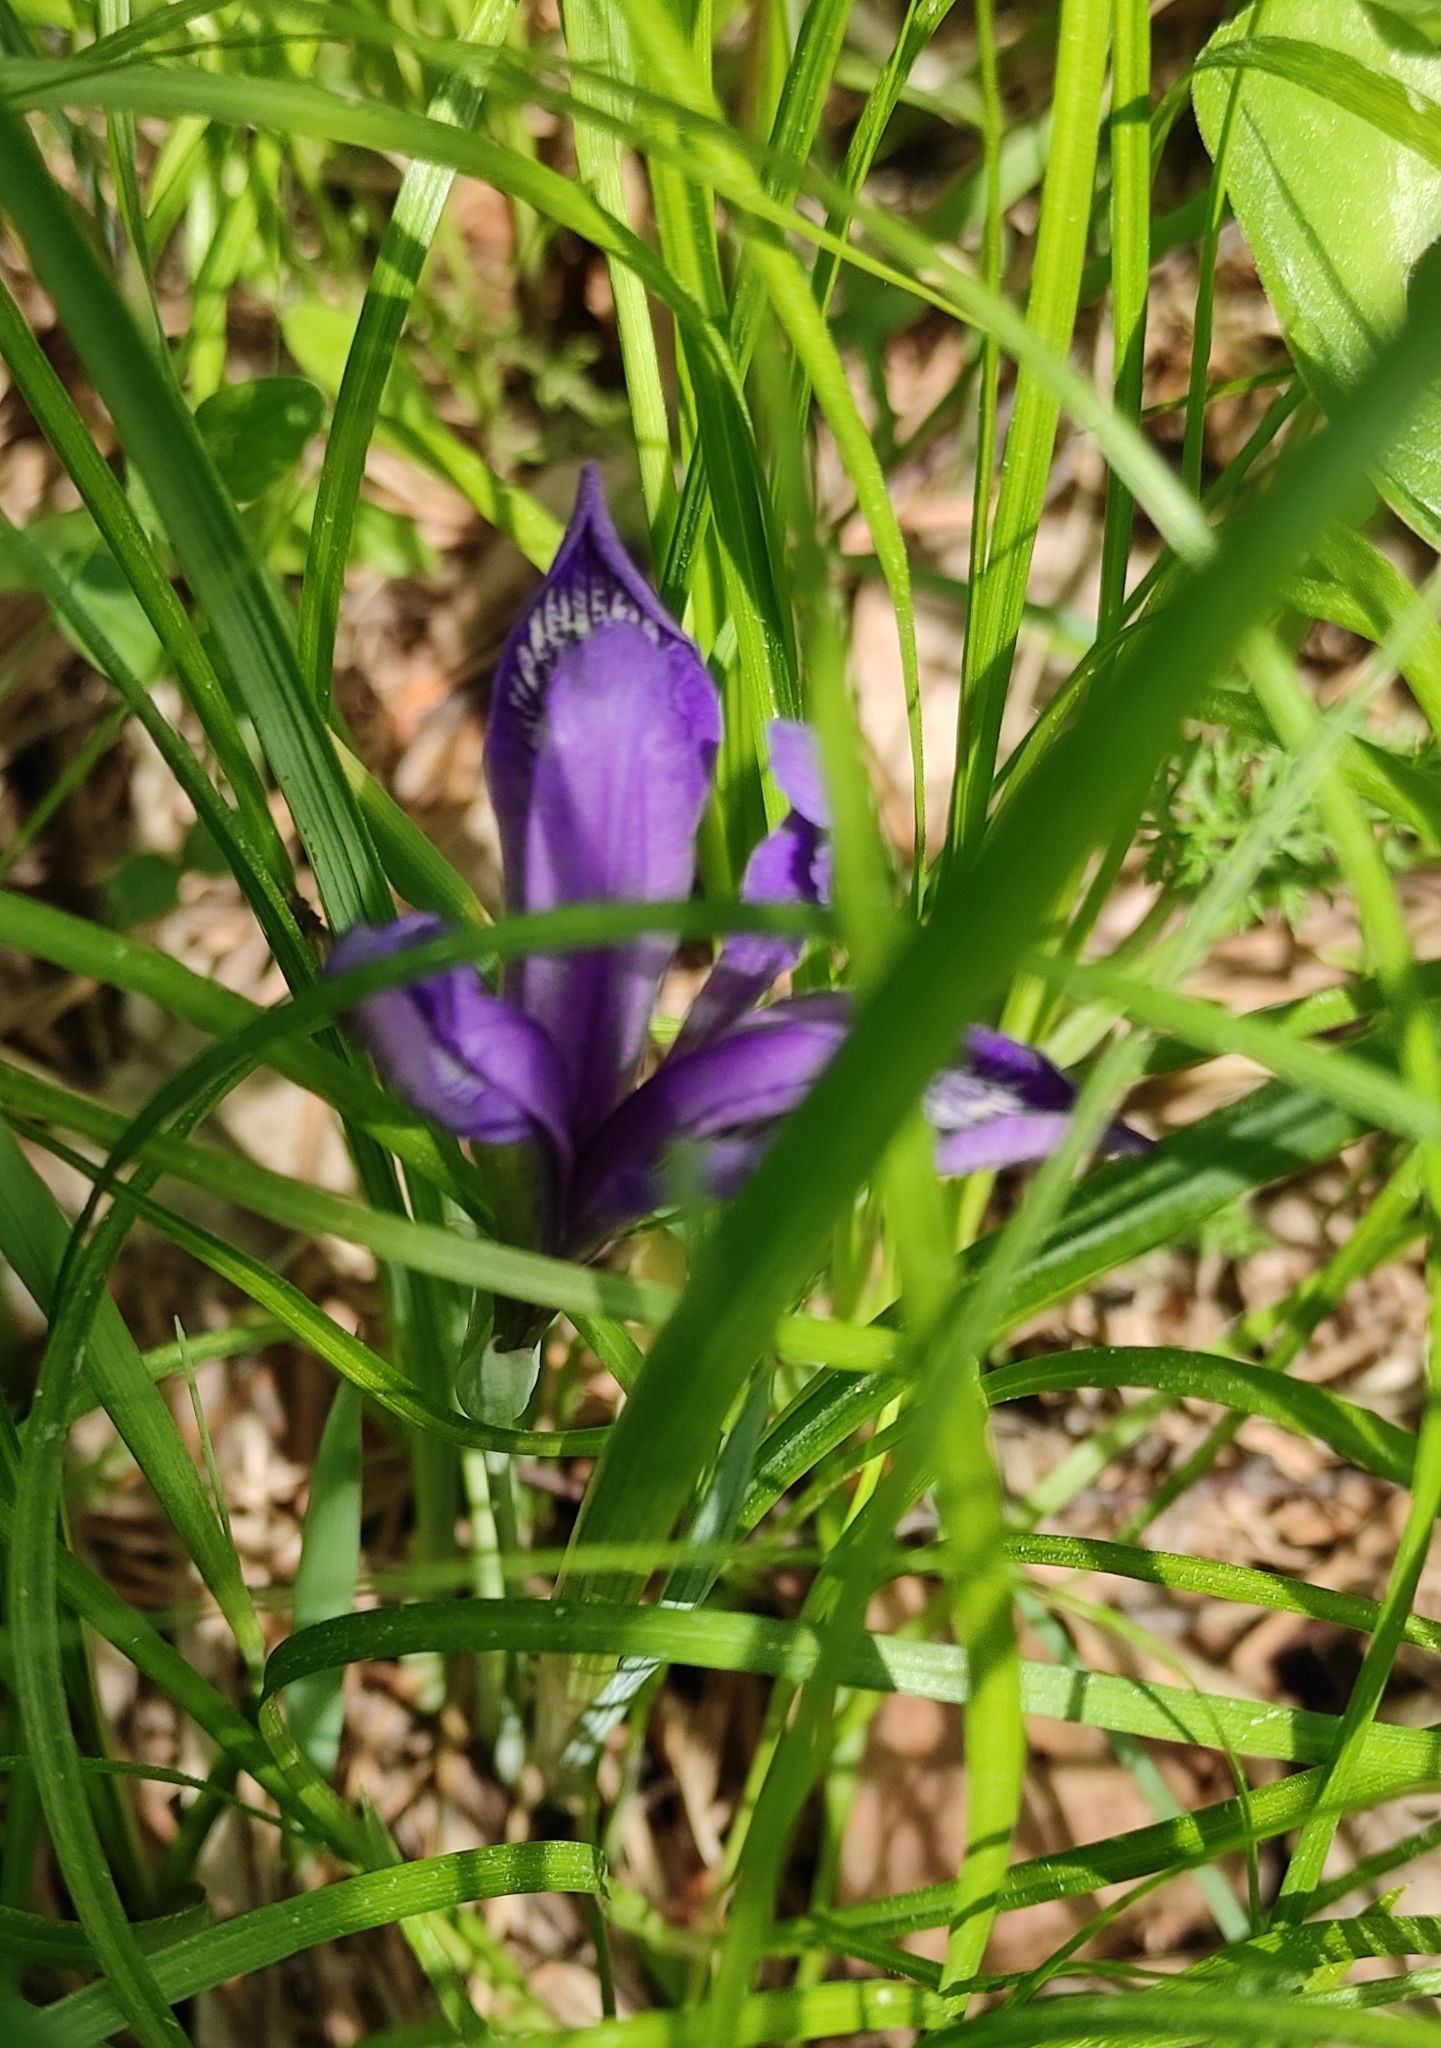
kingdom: Plantae
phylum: Tracheophyta
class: Liliopsida
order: Asparagales
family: Iridaceae
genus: Iris
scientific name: Iris ruthenica
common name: Purple-bract iris
